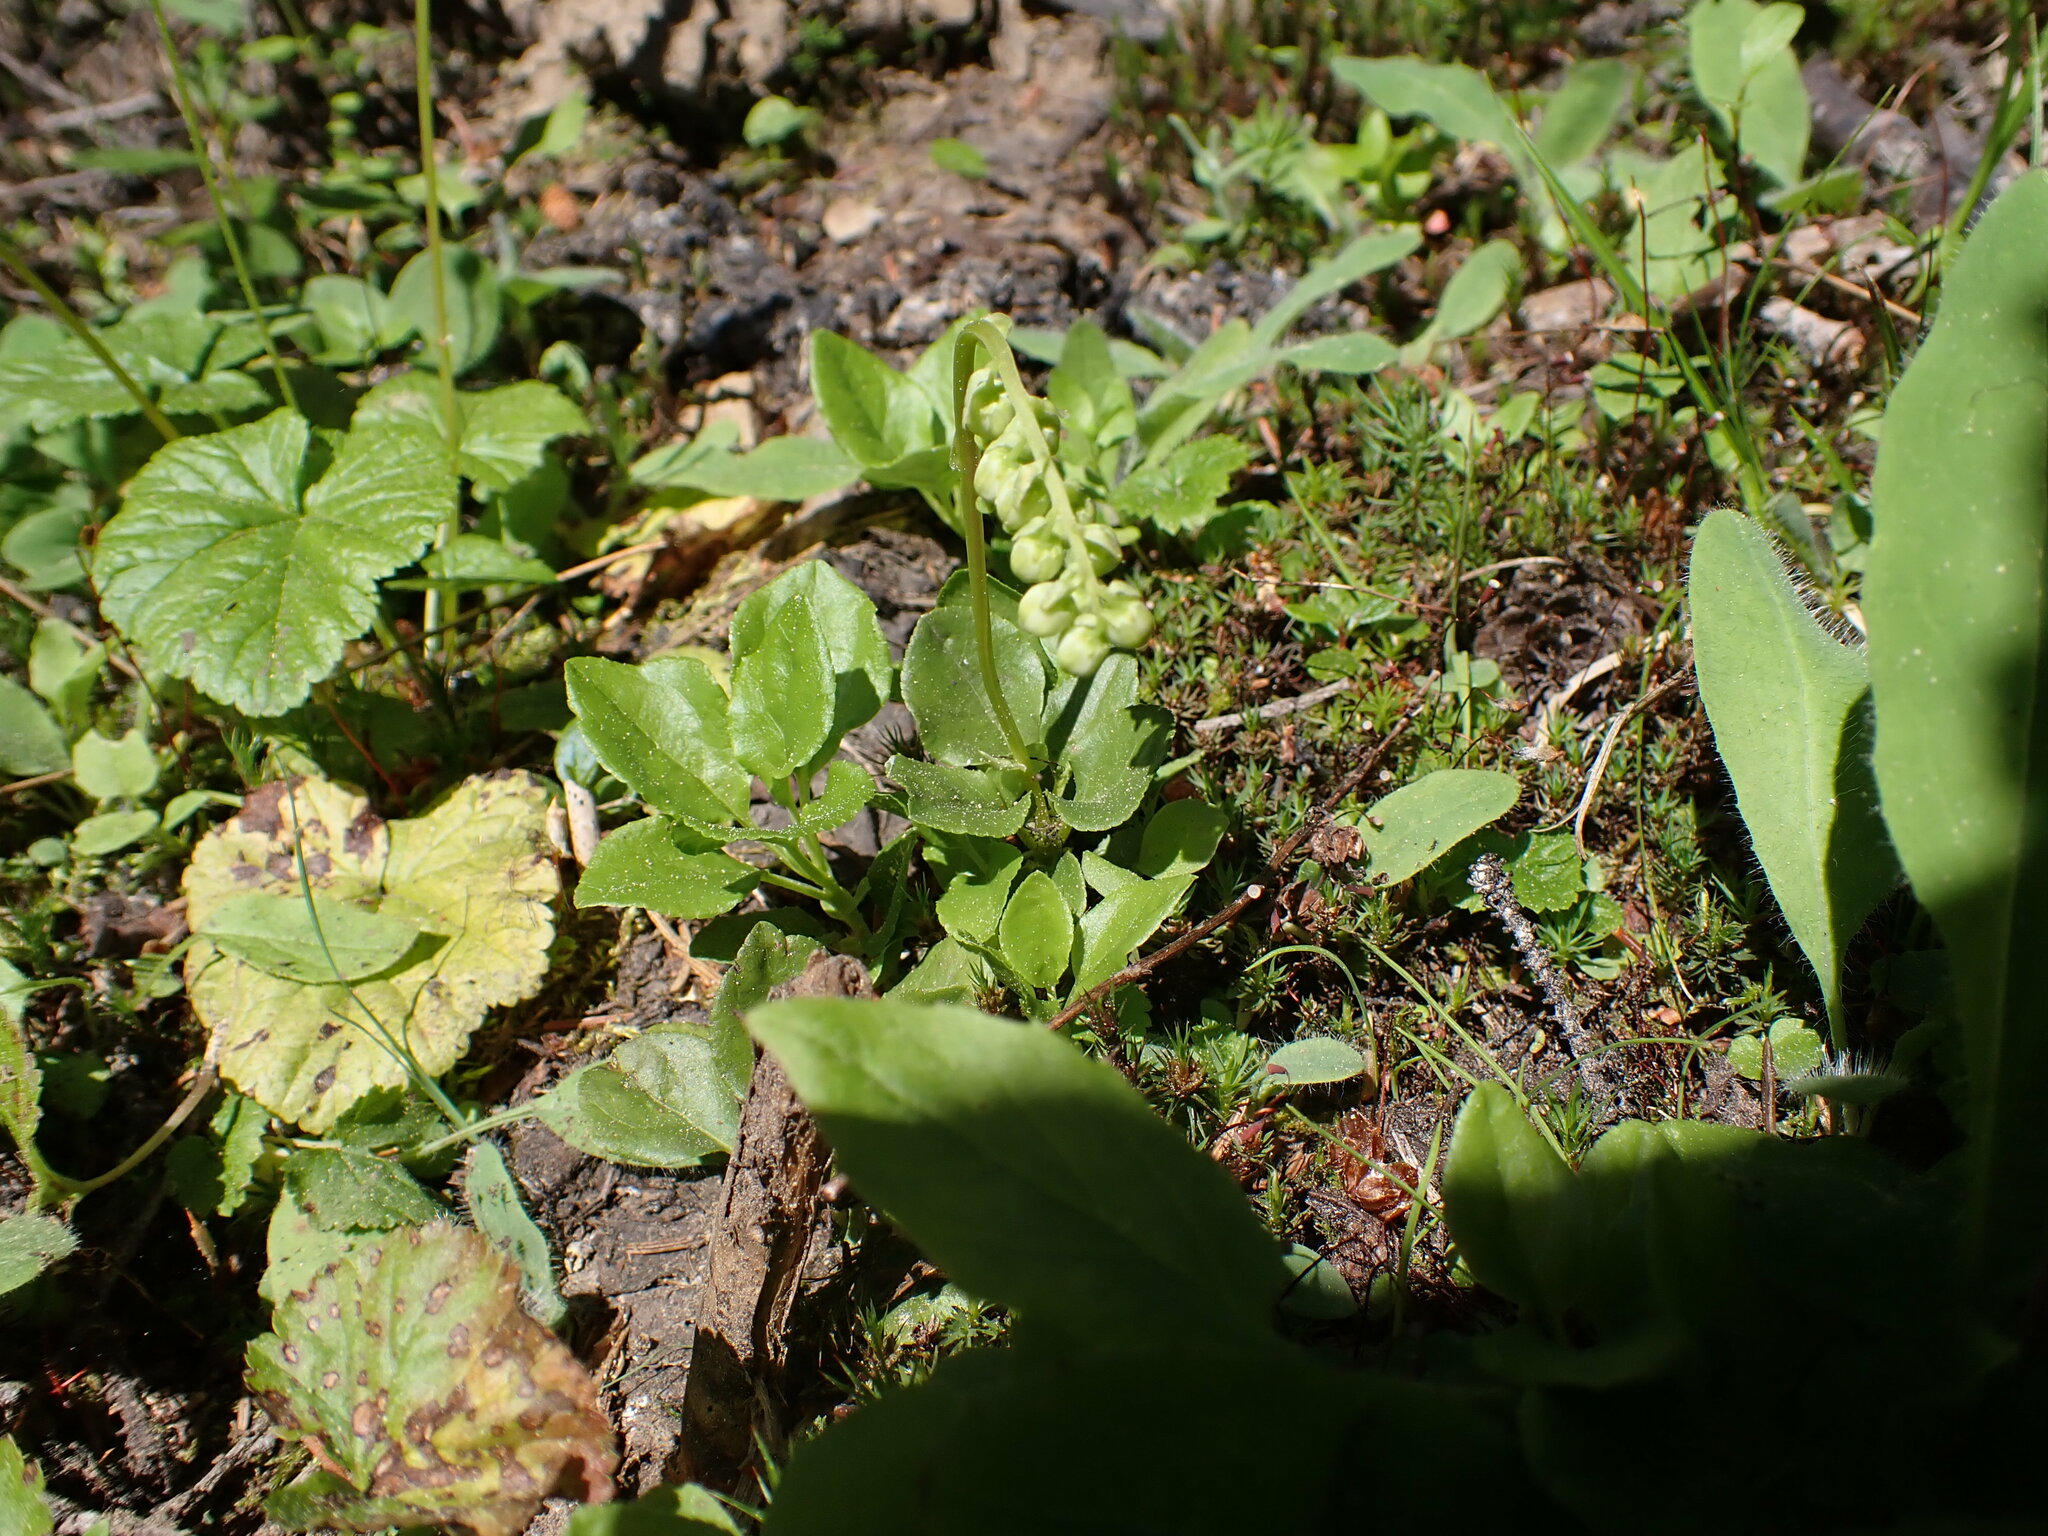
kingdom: Plantae
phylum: Tracheophyta
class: Magnoliopsida
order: Ericales
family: Ericaceae
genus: Orthilia
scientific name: Orthilia secunda
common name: One-sided orthilia
